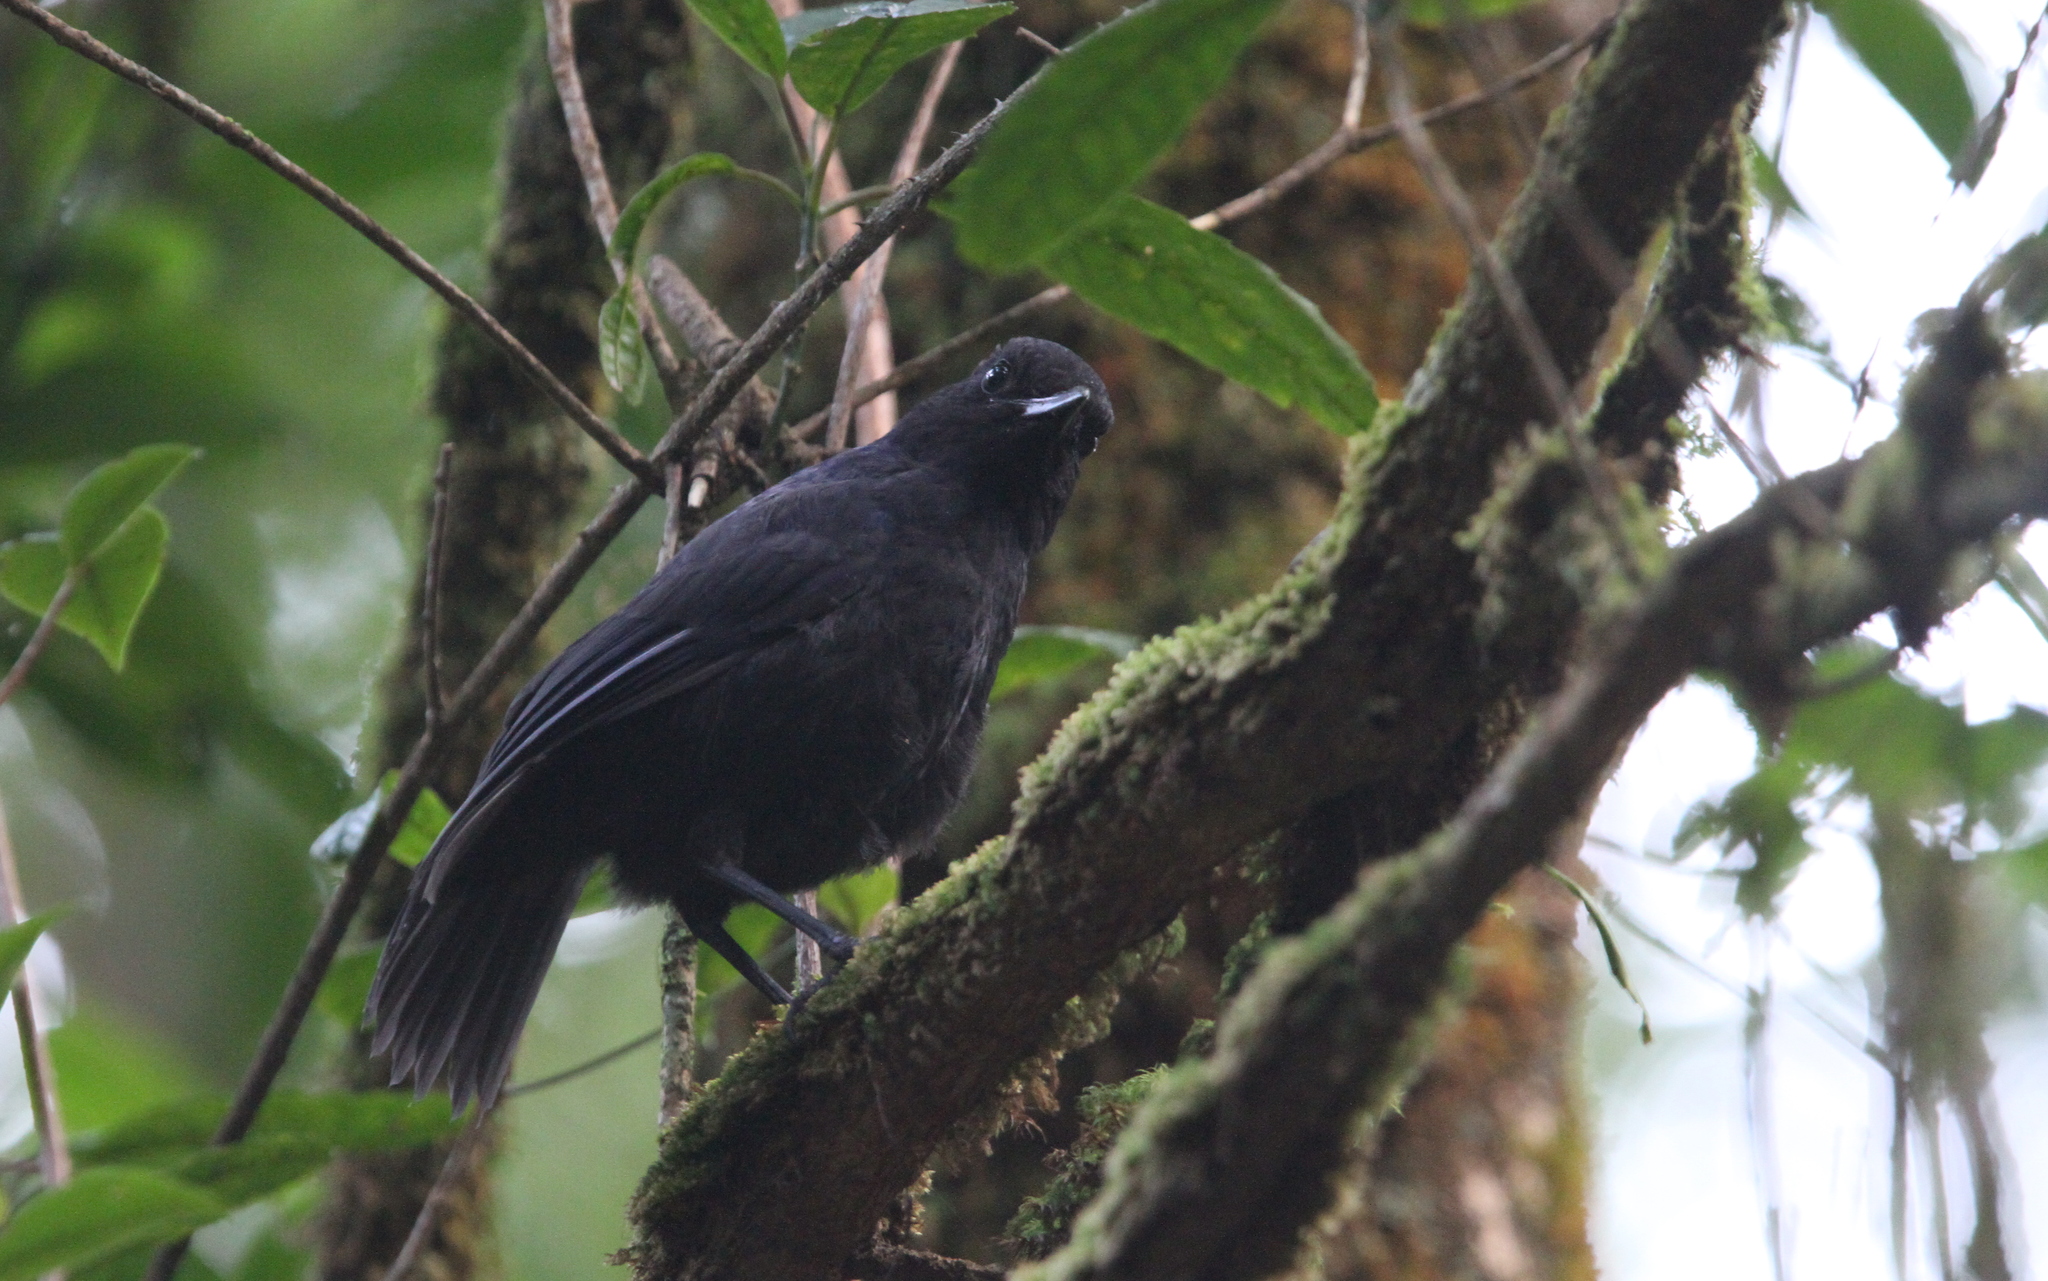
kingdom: Animalia
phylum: Chordata
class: Aves
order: Passeriformes
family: Muscicapidae
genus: Myophonus
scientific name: Myophonus glaucinus
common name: Javan whistling-thrush
